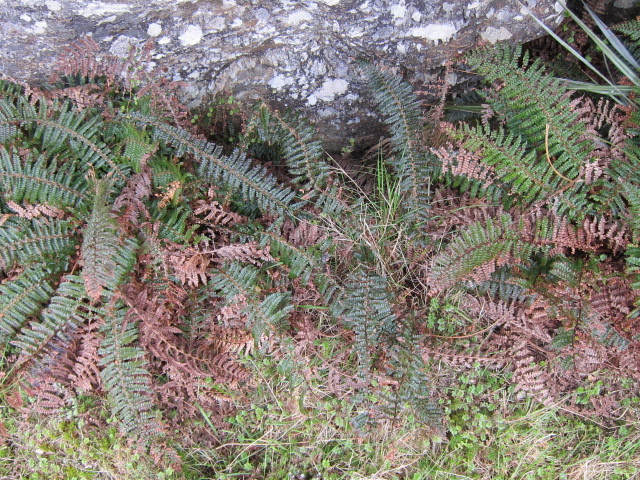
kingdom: Plantae
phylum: Tracheophyta
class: Polypodiopsida
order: Polypodiales
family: Dryopteridaceae
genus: Polystichum
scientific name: Polystichum vestitum
